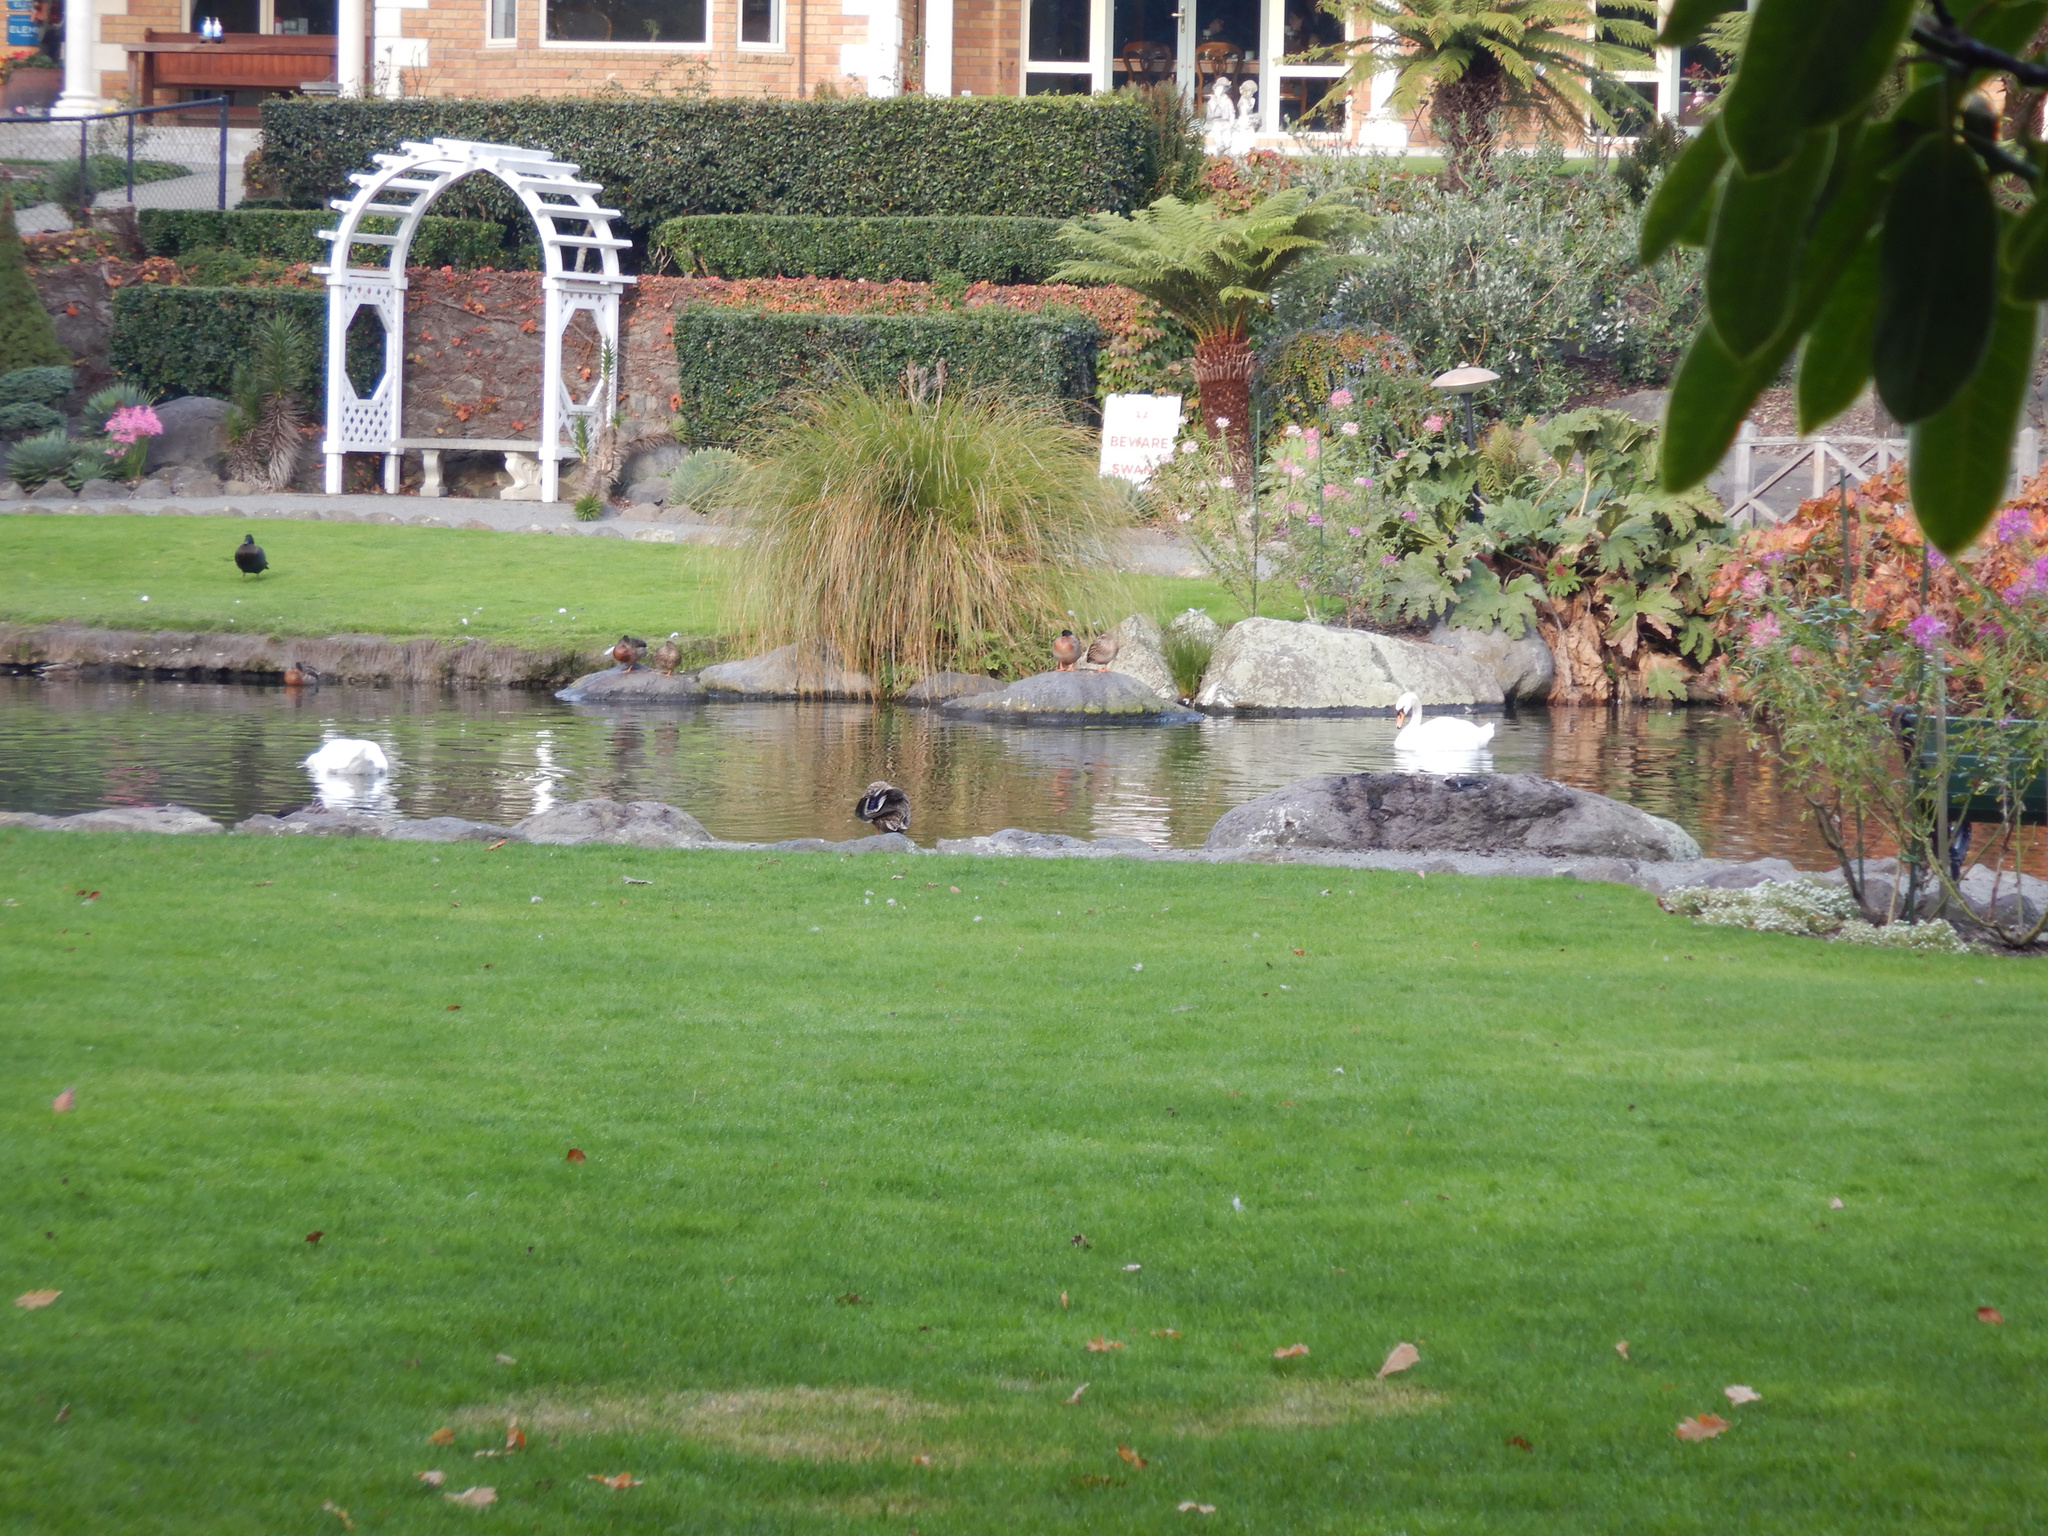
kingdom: Animalia
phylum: Chordata
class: Aves
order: Anseriformes
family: Anatidae
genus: Cygnus
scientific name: Cygnus olor
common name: Mute swan
